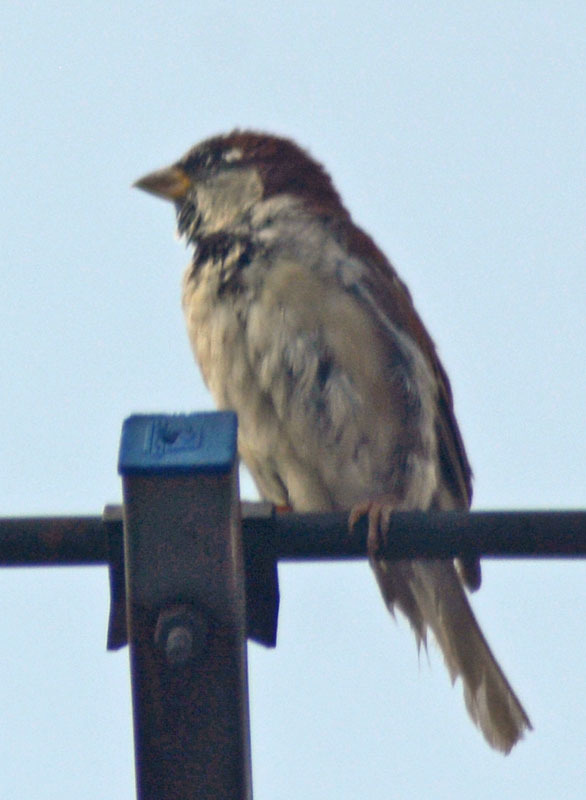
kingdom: Animalia
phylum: Chordata
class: Aves
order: Passeriformes
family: Passeridae
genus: Passer
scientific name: Passer domesticus
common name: House sparrow
